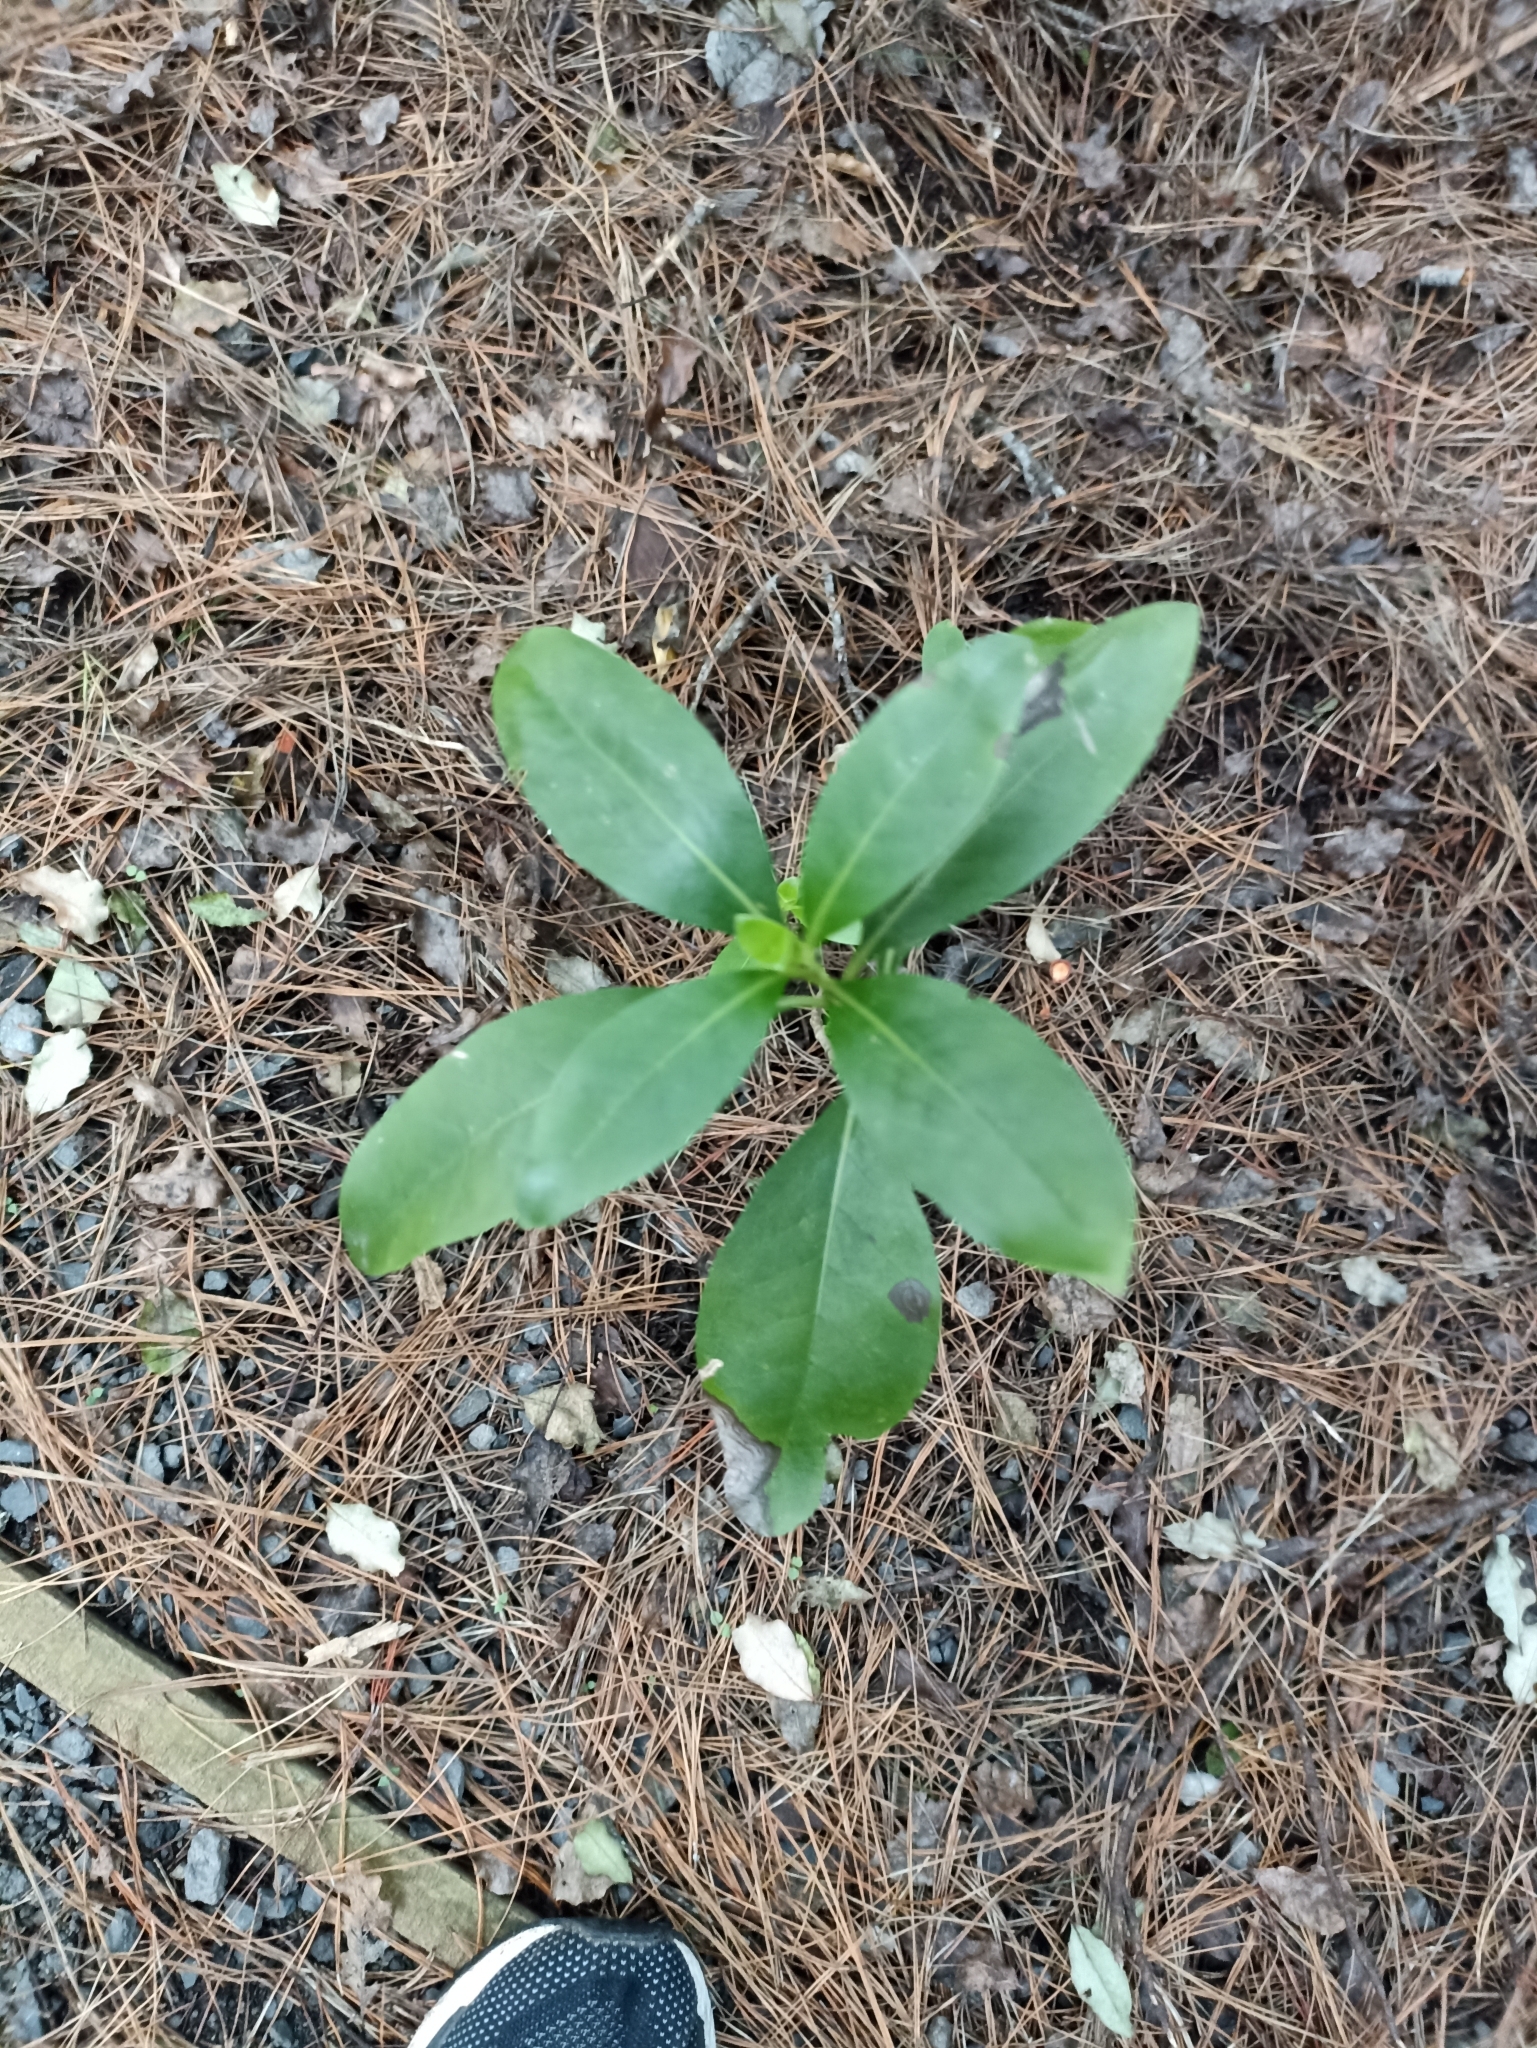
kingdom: Plantae
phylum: Tracheophyta
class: Magnoliopsida
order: Gentianales
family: Rubiaceae
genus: Coprosma
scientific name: Coprosma macrocarpa
